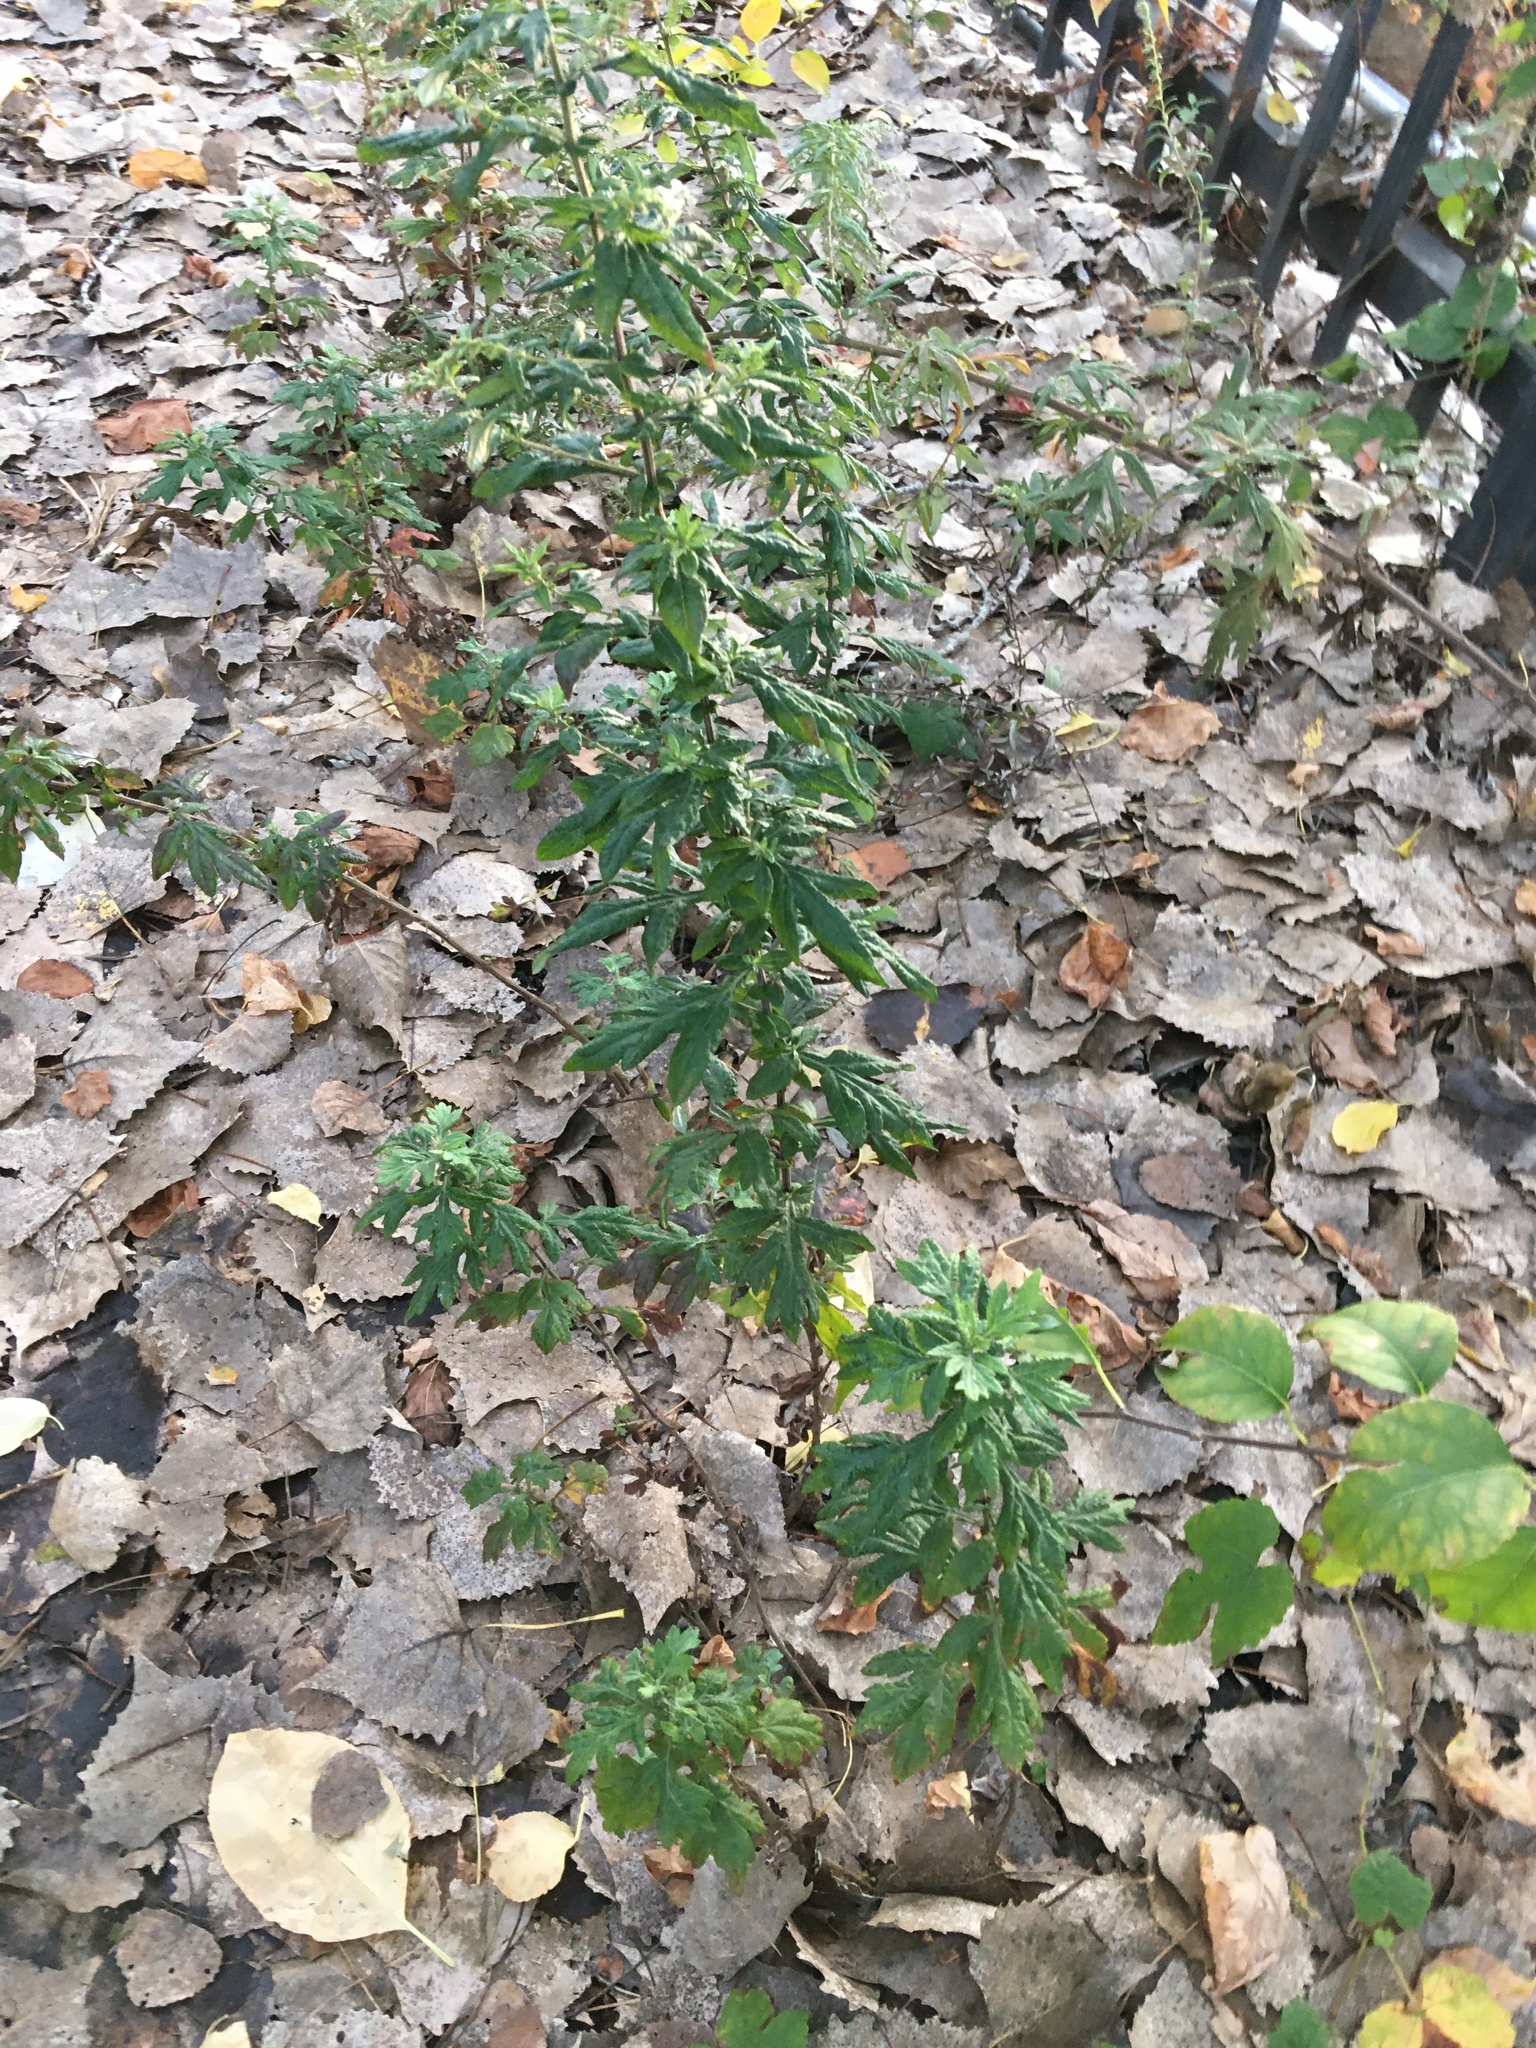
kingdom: Plantae
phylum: Tracheophyta
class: Magnoliopsida
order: Asterales
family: Asteraceae
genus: Artemisia
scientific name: Artemisia vulgaris
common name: Mugwort
